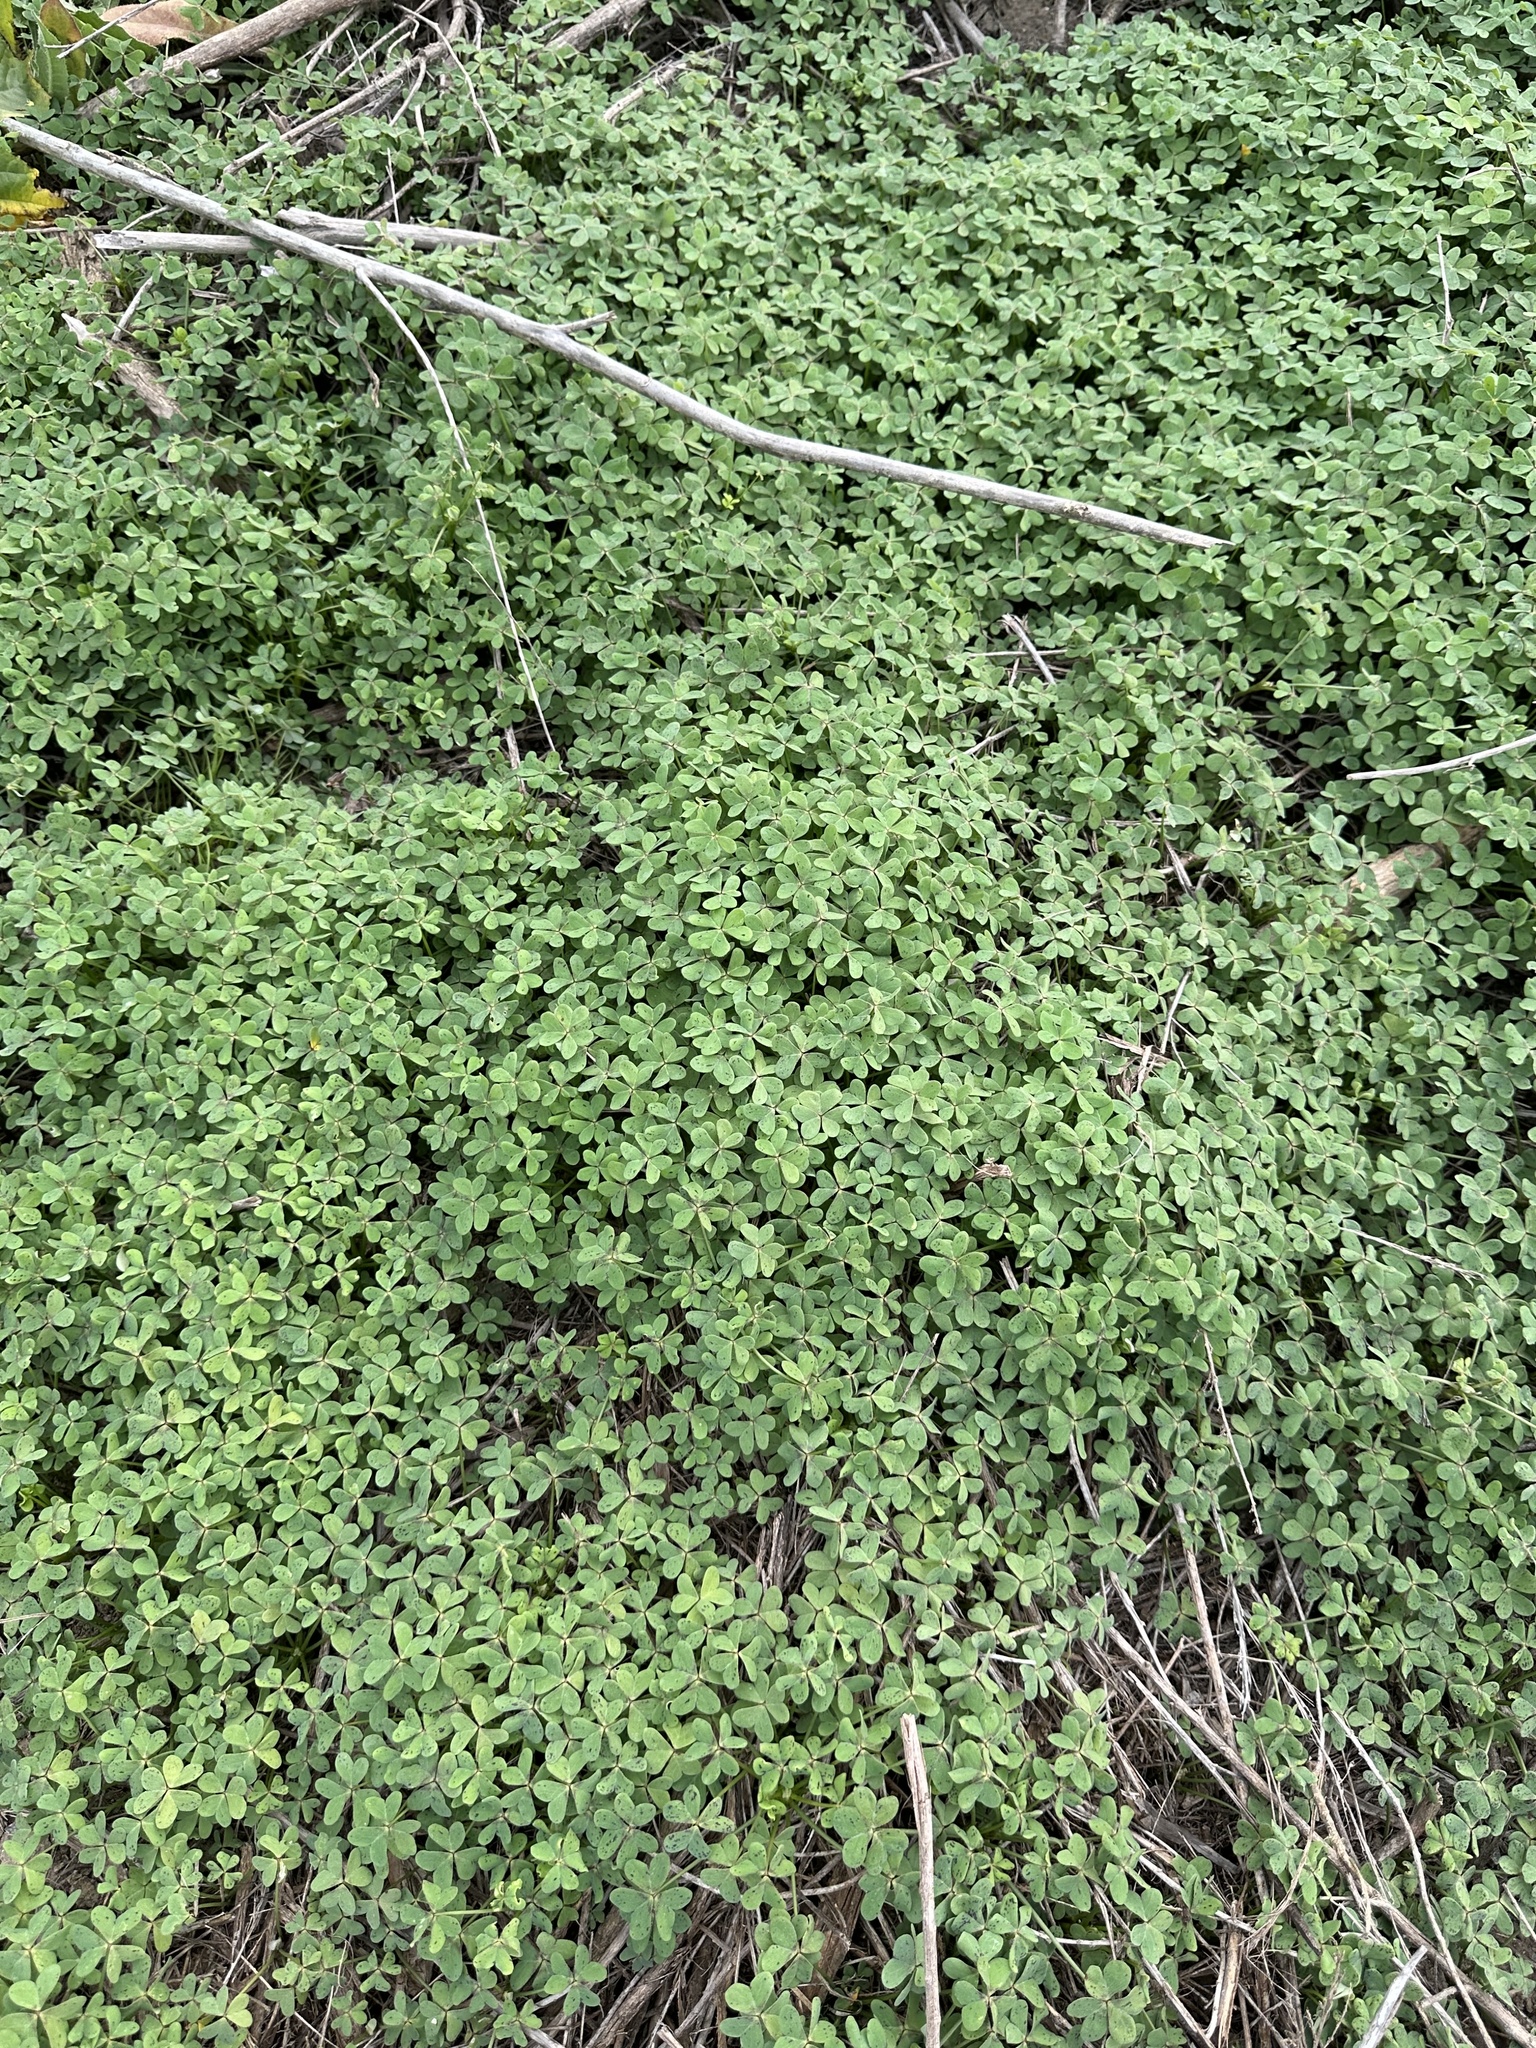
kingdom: Plantae
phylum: Tracheophyta
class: Magnoliopsida
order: Oxalidales
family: Oxalidaceae
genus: Oxalis
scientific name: Oxalis pes-caprae
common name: Bermuda-buttercup
